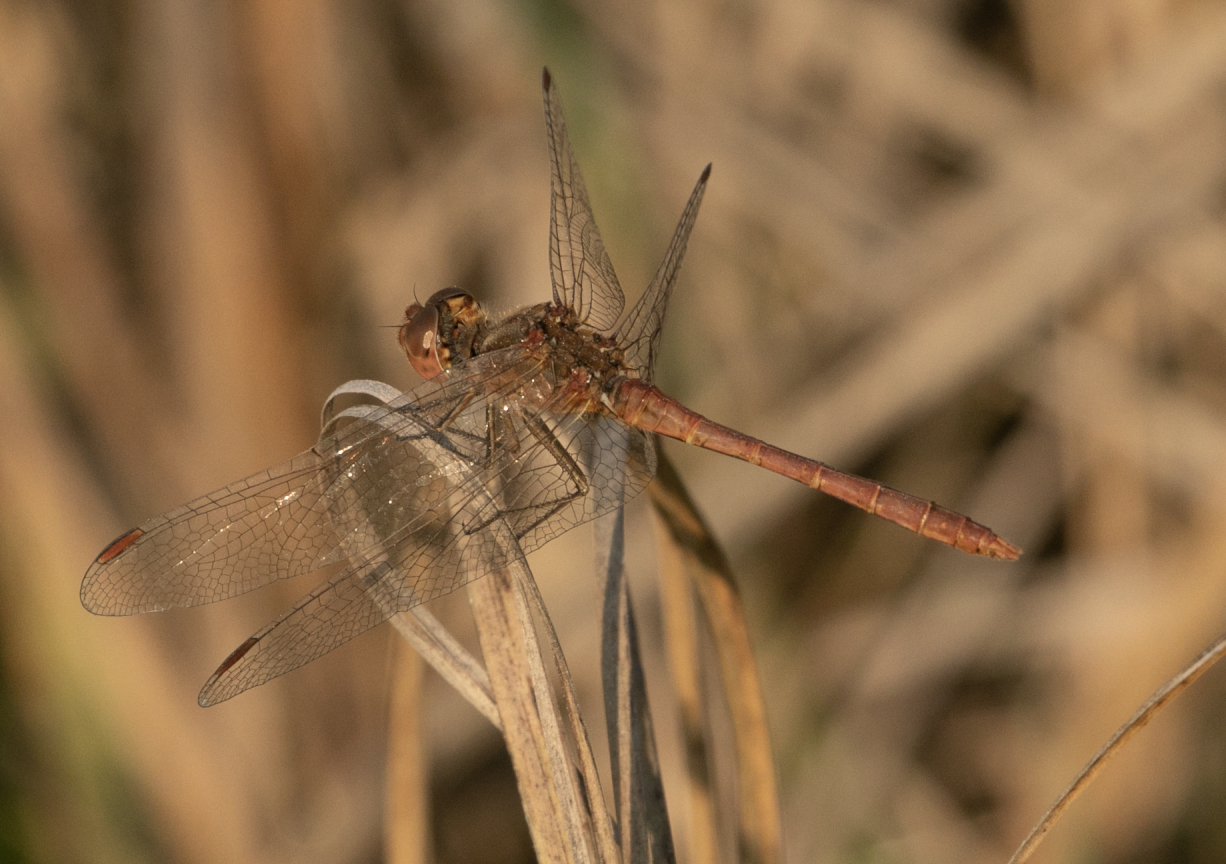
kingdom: Animalia
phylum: Arthropoda
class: Insecta
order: Odonata
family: Libellulidae
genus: Sympetrum
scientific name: Sympetrum meridionale
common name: Southern darter
